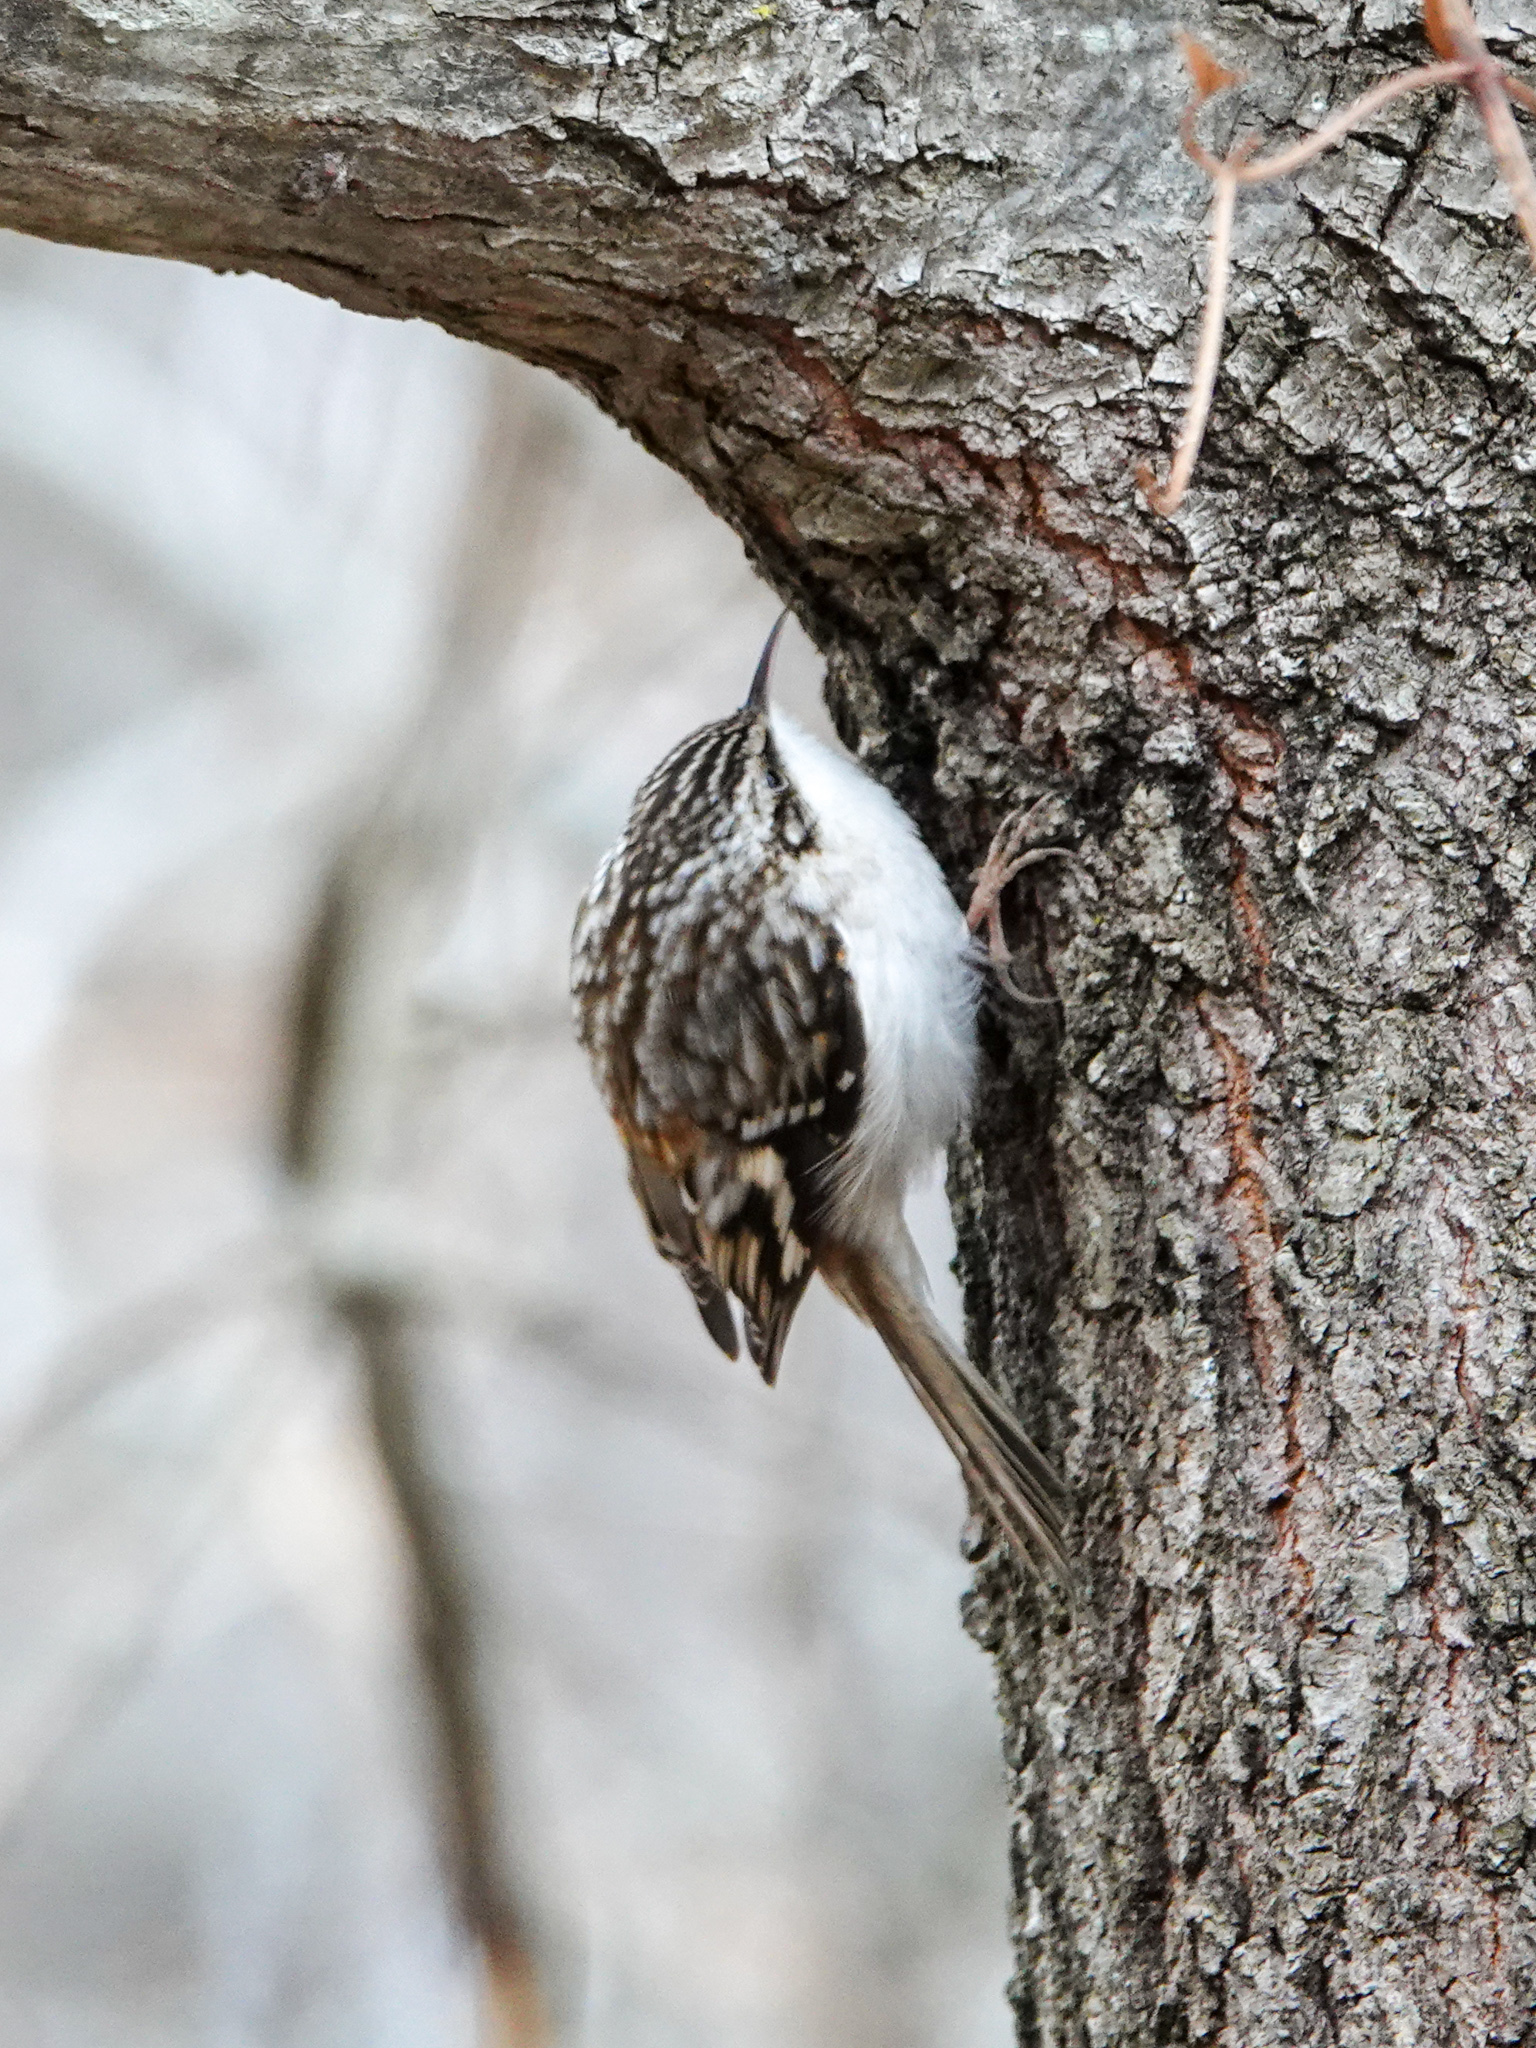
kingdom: Animalia
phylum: Chordata
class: Aves
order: Passeriformes
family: Certhiidae
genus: Certhia
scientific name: Certhia americana
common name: Brown creeper
